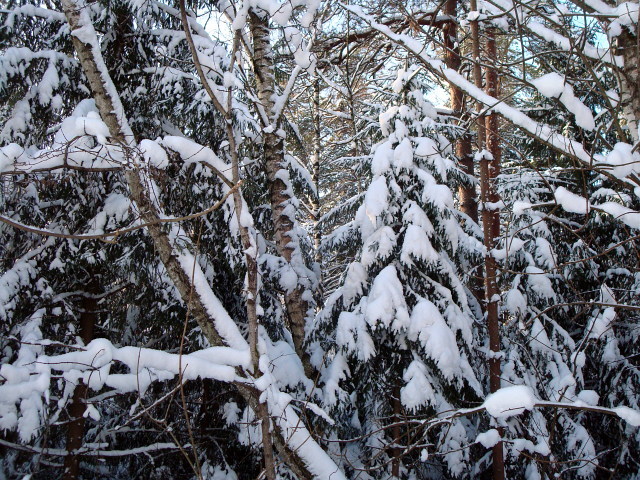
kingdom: Plantae
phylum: Tracheophyta
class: Pinopsida
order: Pinales
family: Pinaceae
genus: Picea
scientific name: Picea abies
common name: Norway spruce
